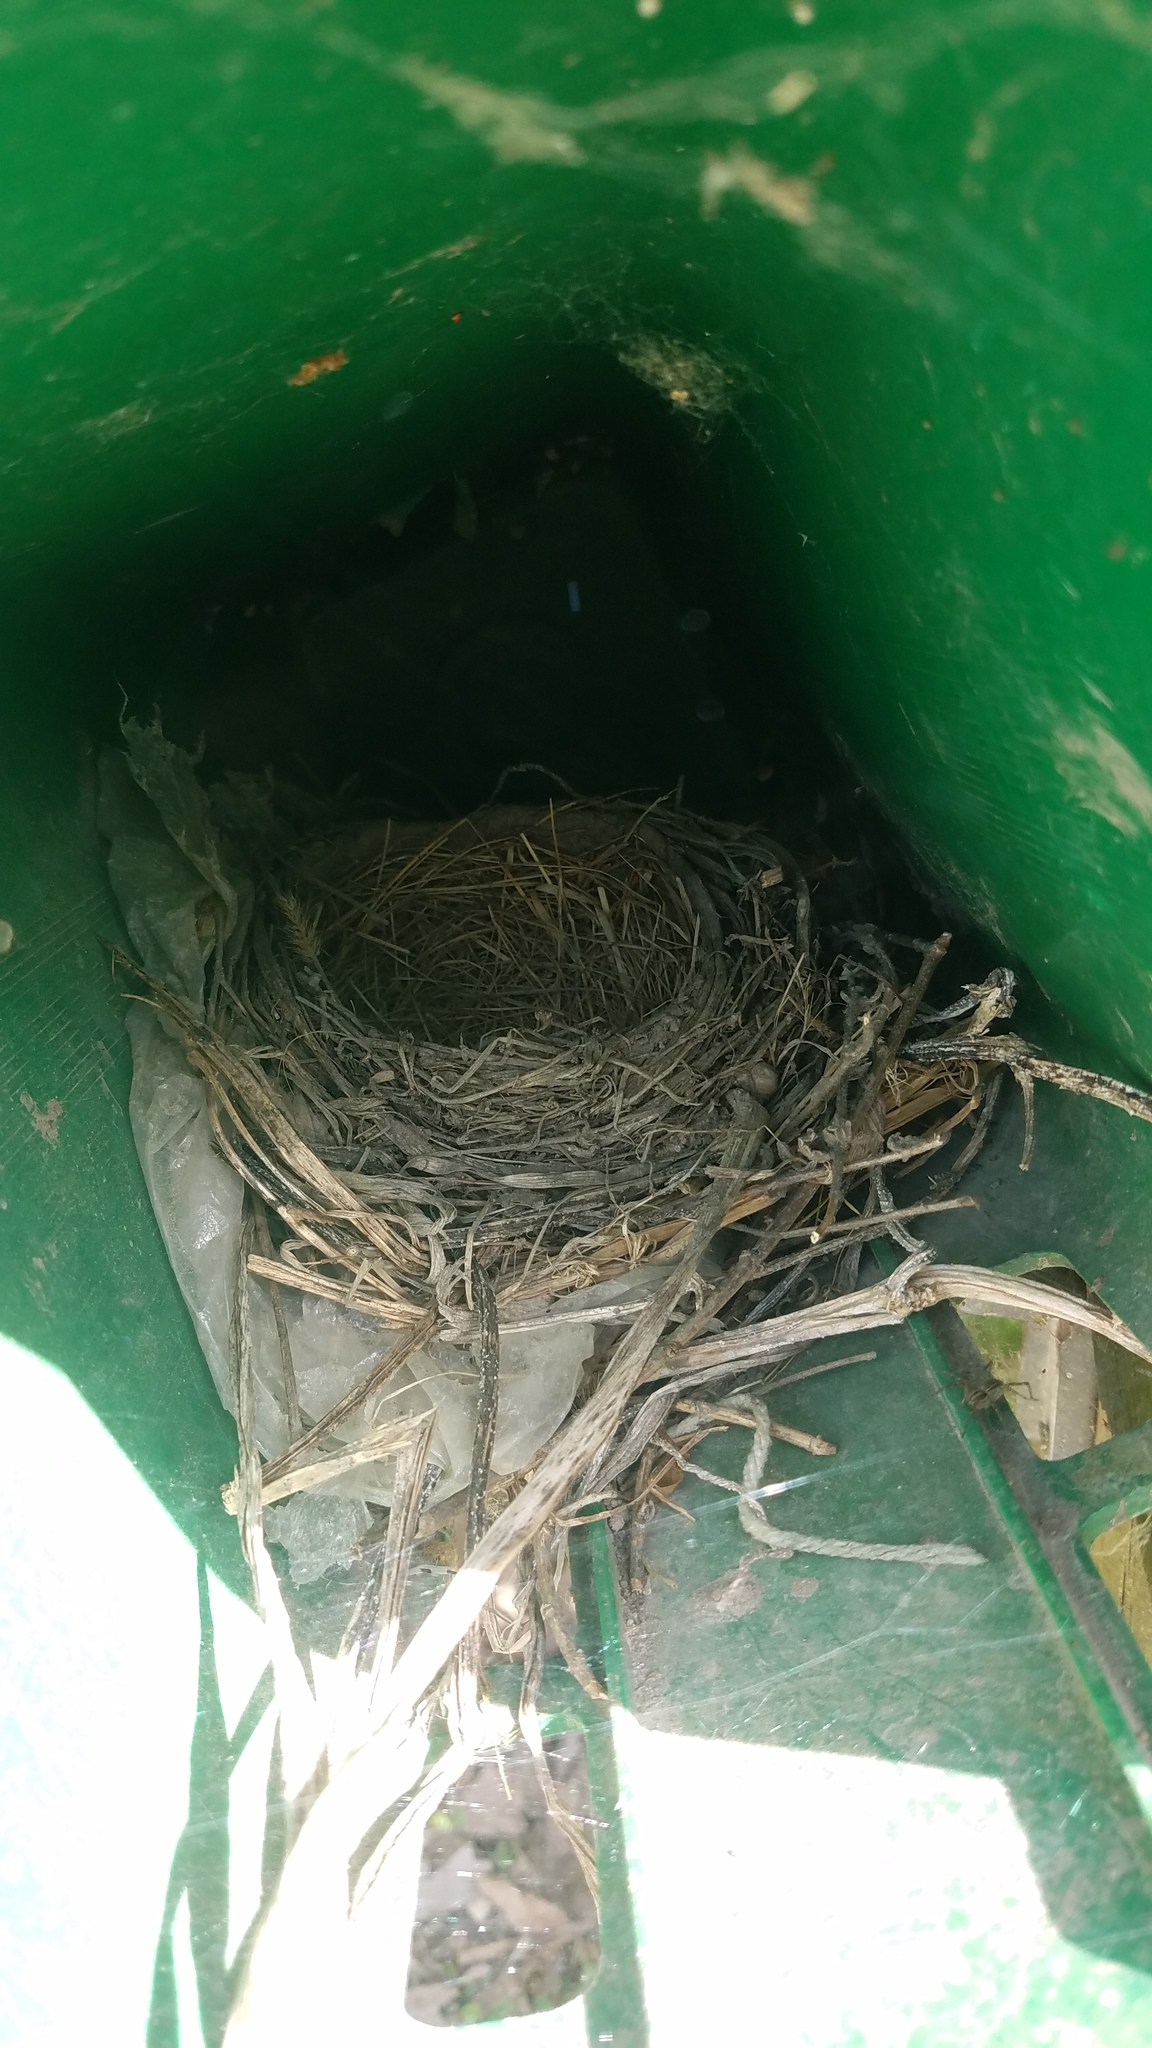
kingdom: Animalia
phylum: Chordata
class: Aves
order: Passeriformes
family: Turdidae
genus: Turdus
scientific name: Turdus migratorius
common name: American robin
